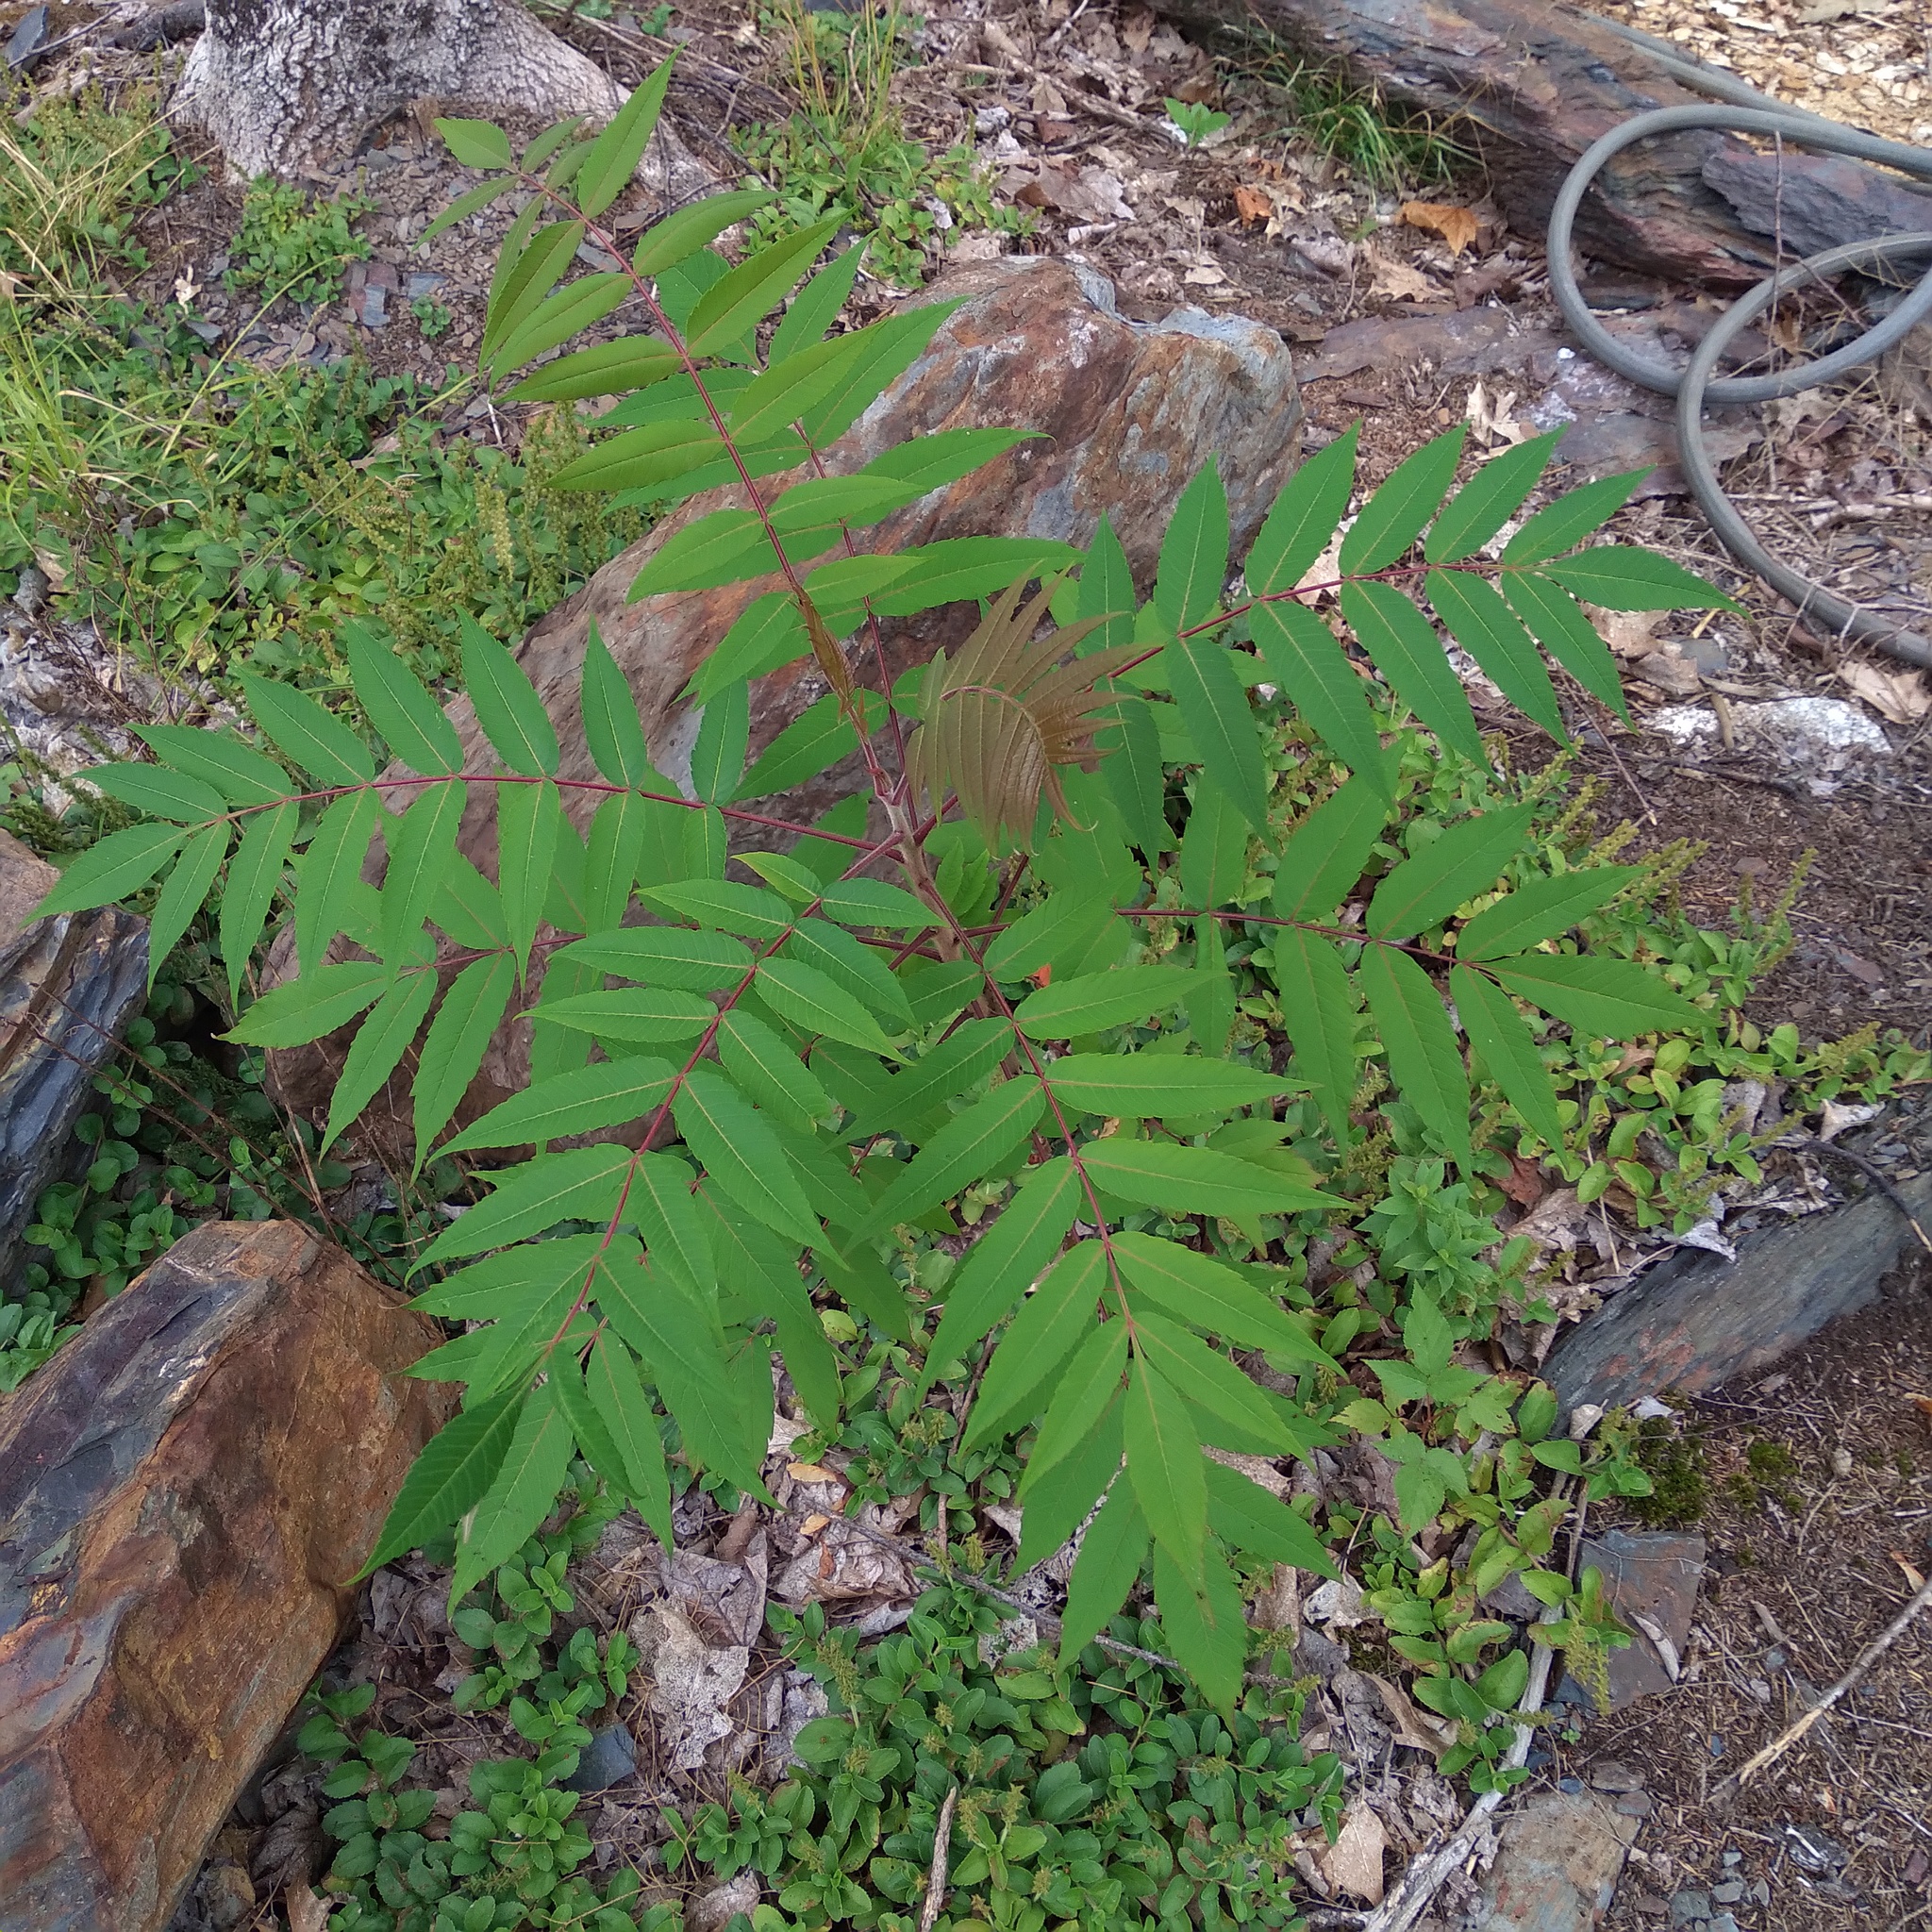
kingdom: Plantae
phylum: Tracheophyta
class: Magnoliopsida
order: Sapindales
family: Anacardiaceae
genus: Rhus
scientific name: Rhus typhina
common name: Staghorn sumac
